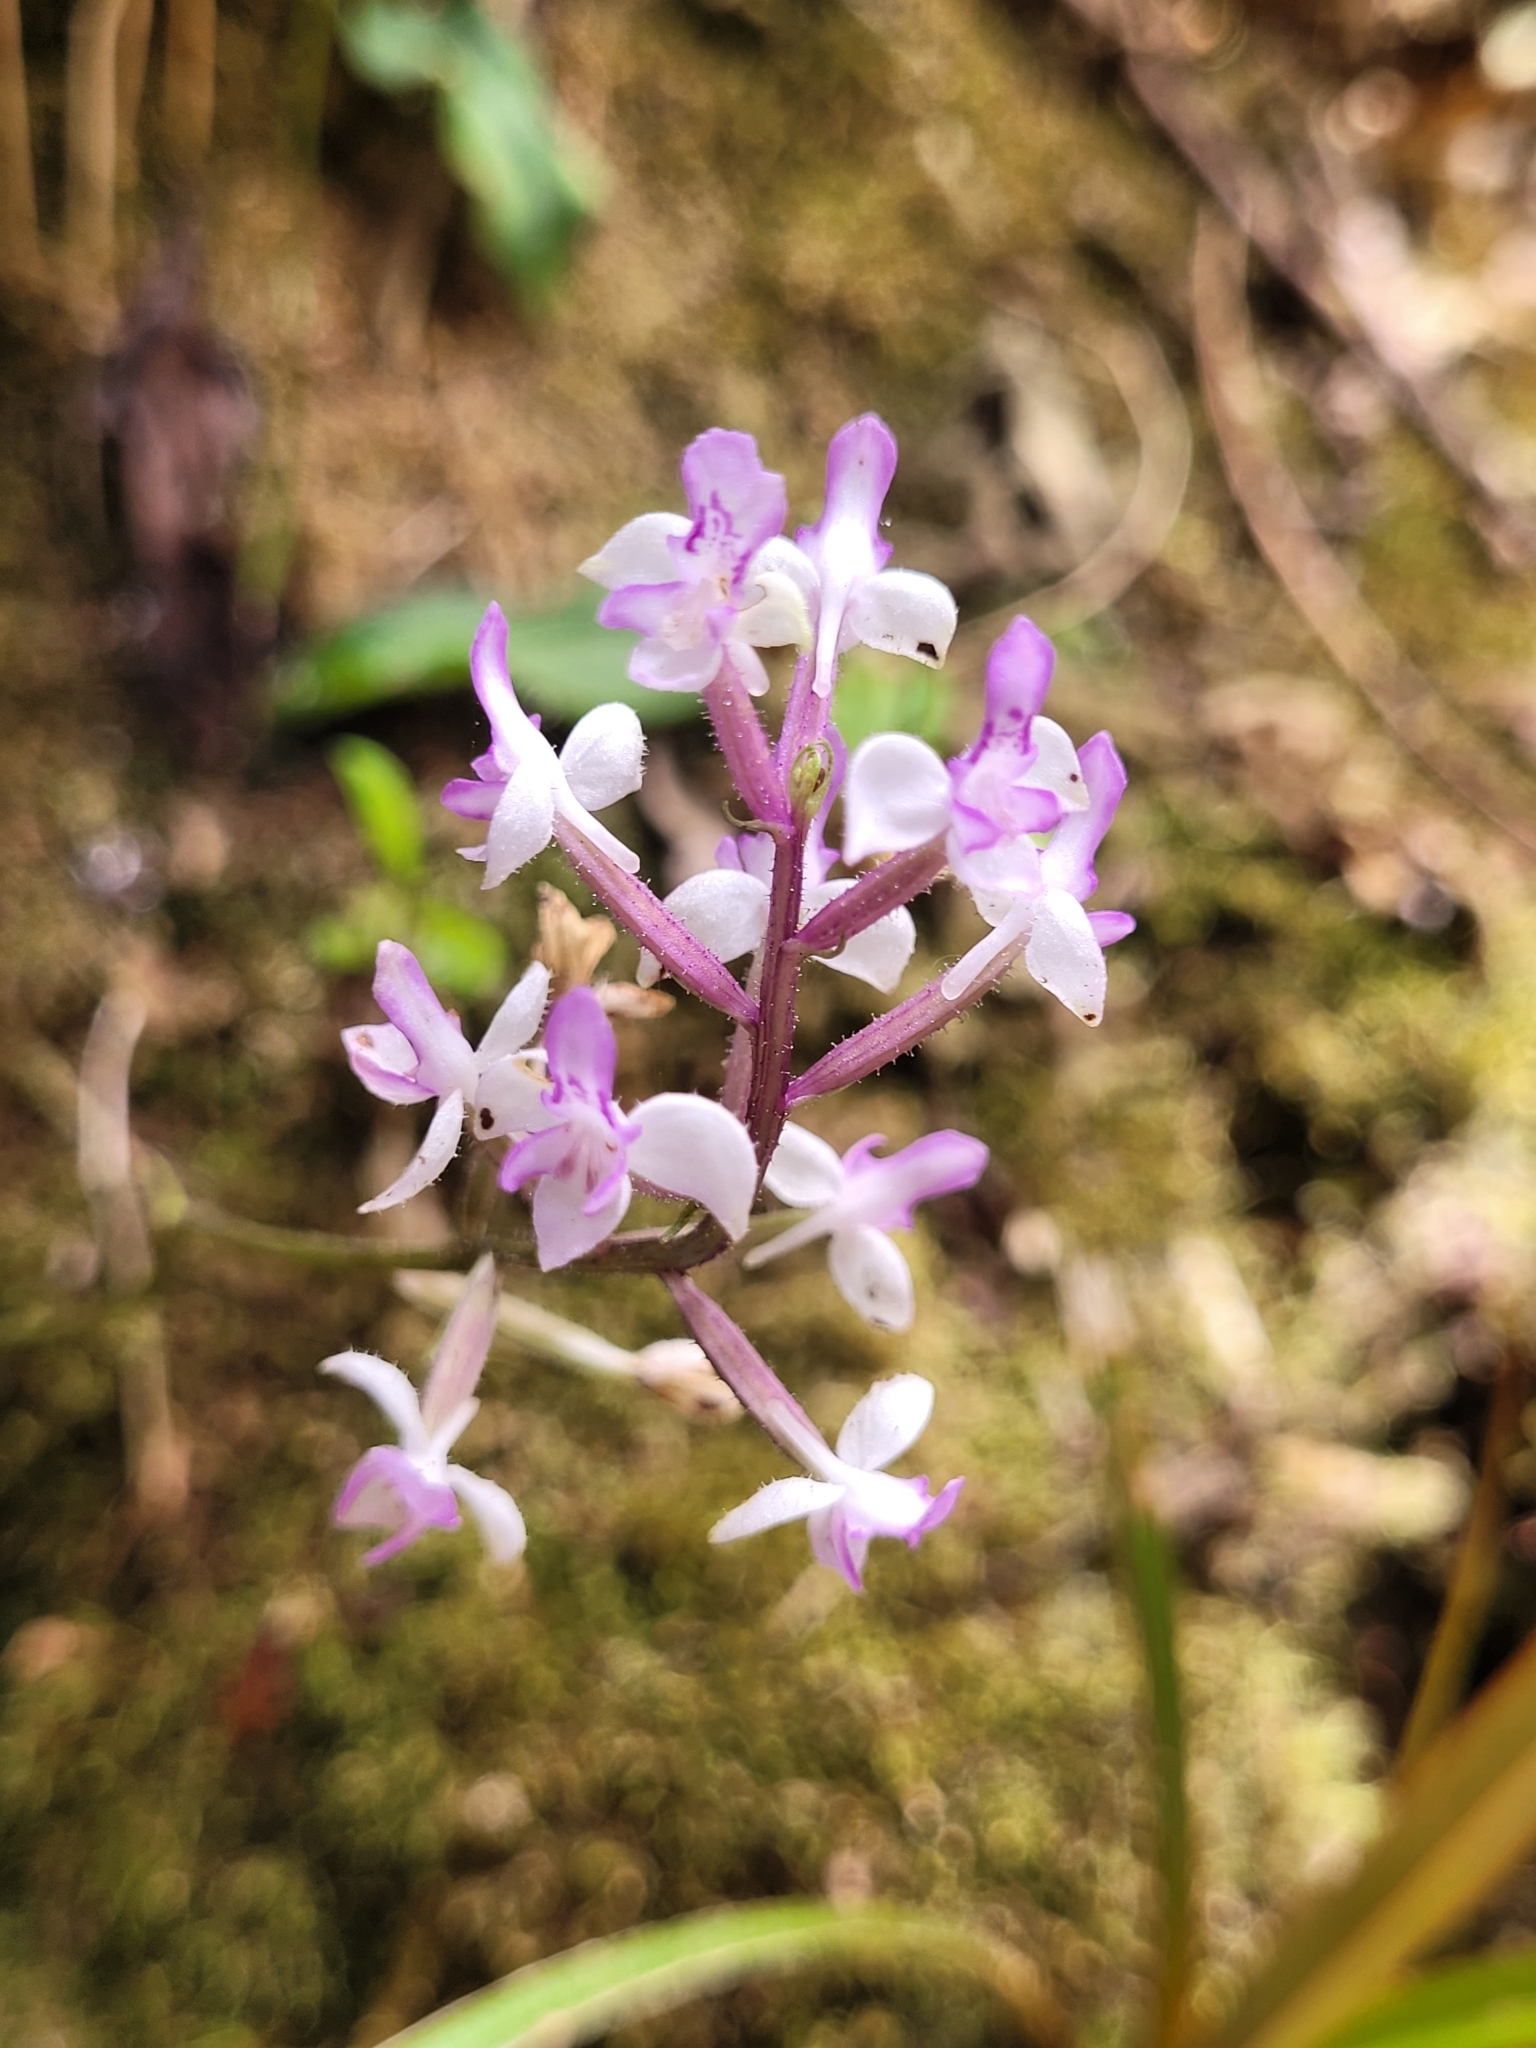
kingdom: Plantae
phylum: Tracheophyta
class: Liliopsida
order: Asparagales
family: Orchidaceae
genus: Cynorkis
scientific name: Cynorkis ridleyi
